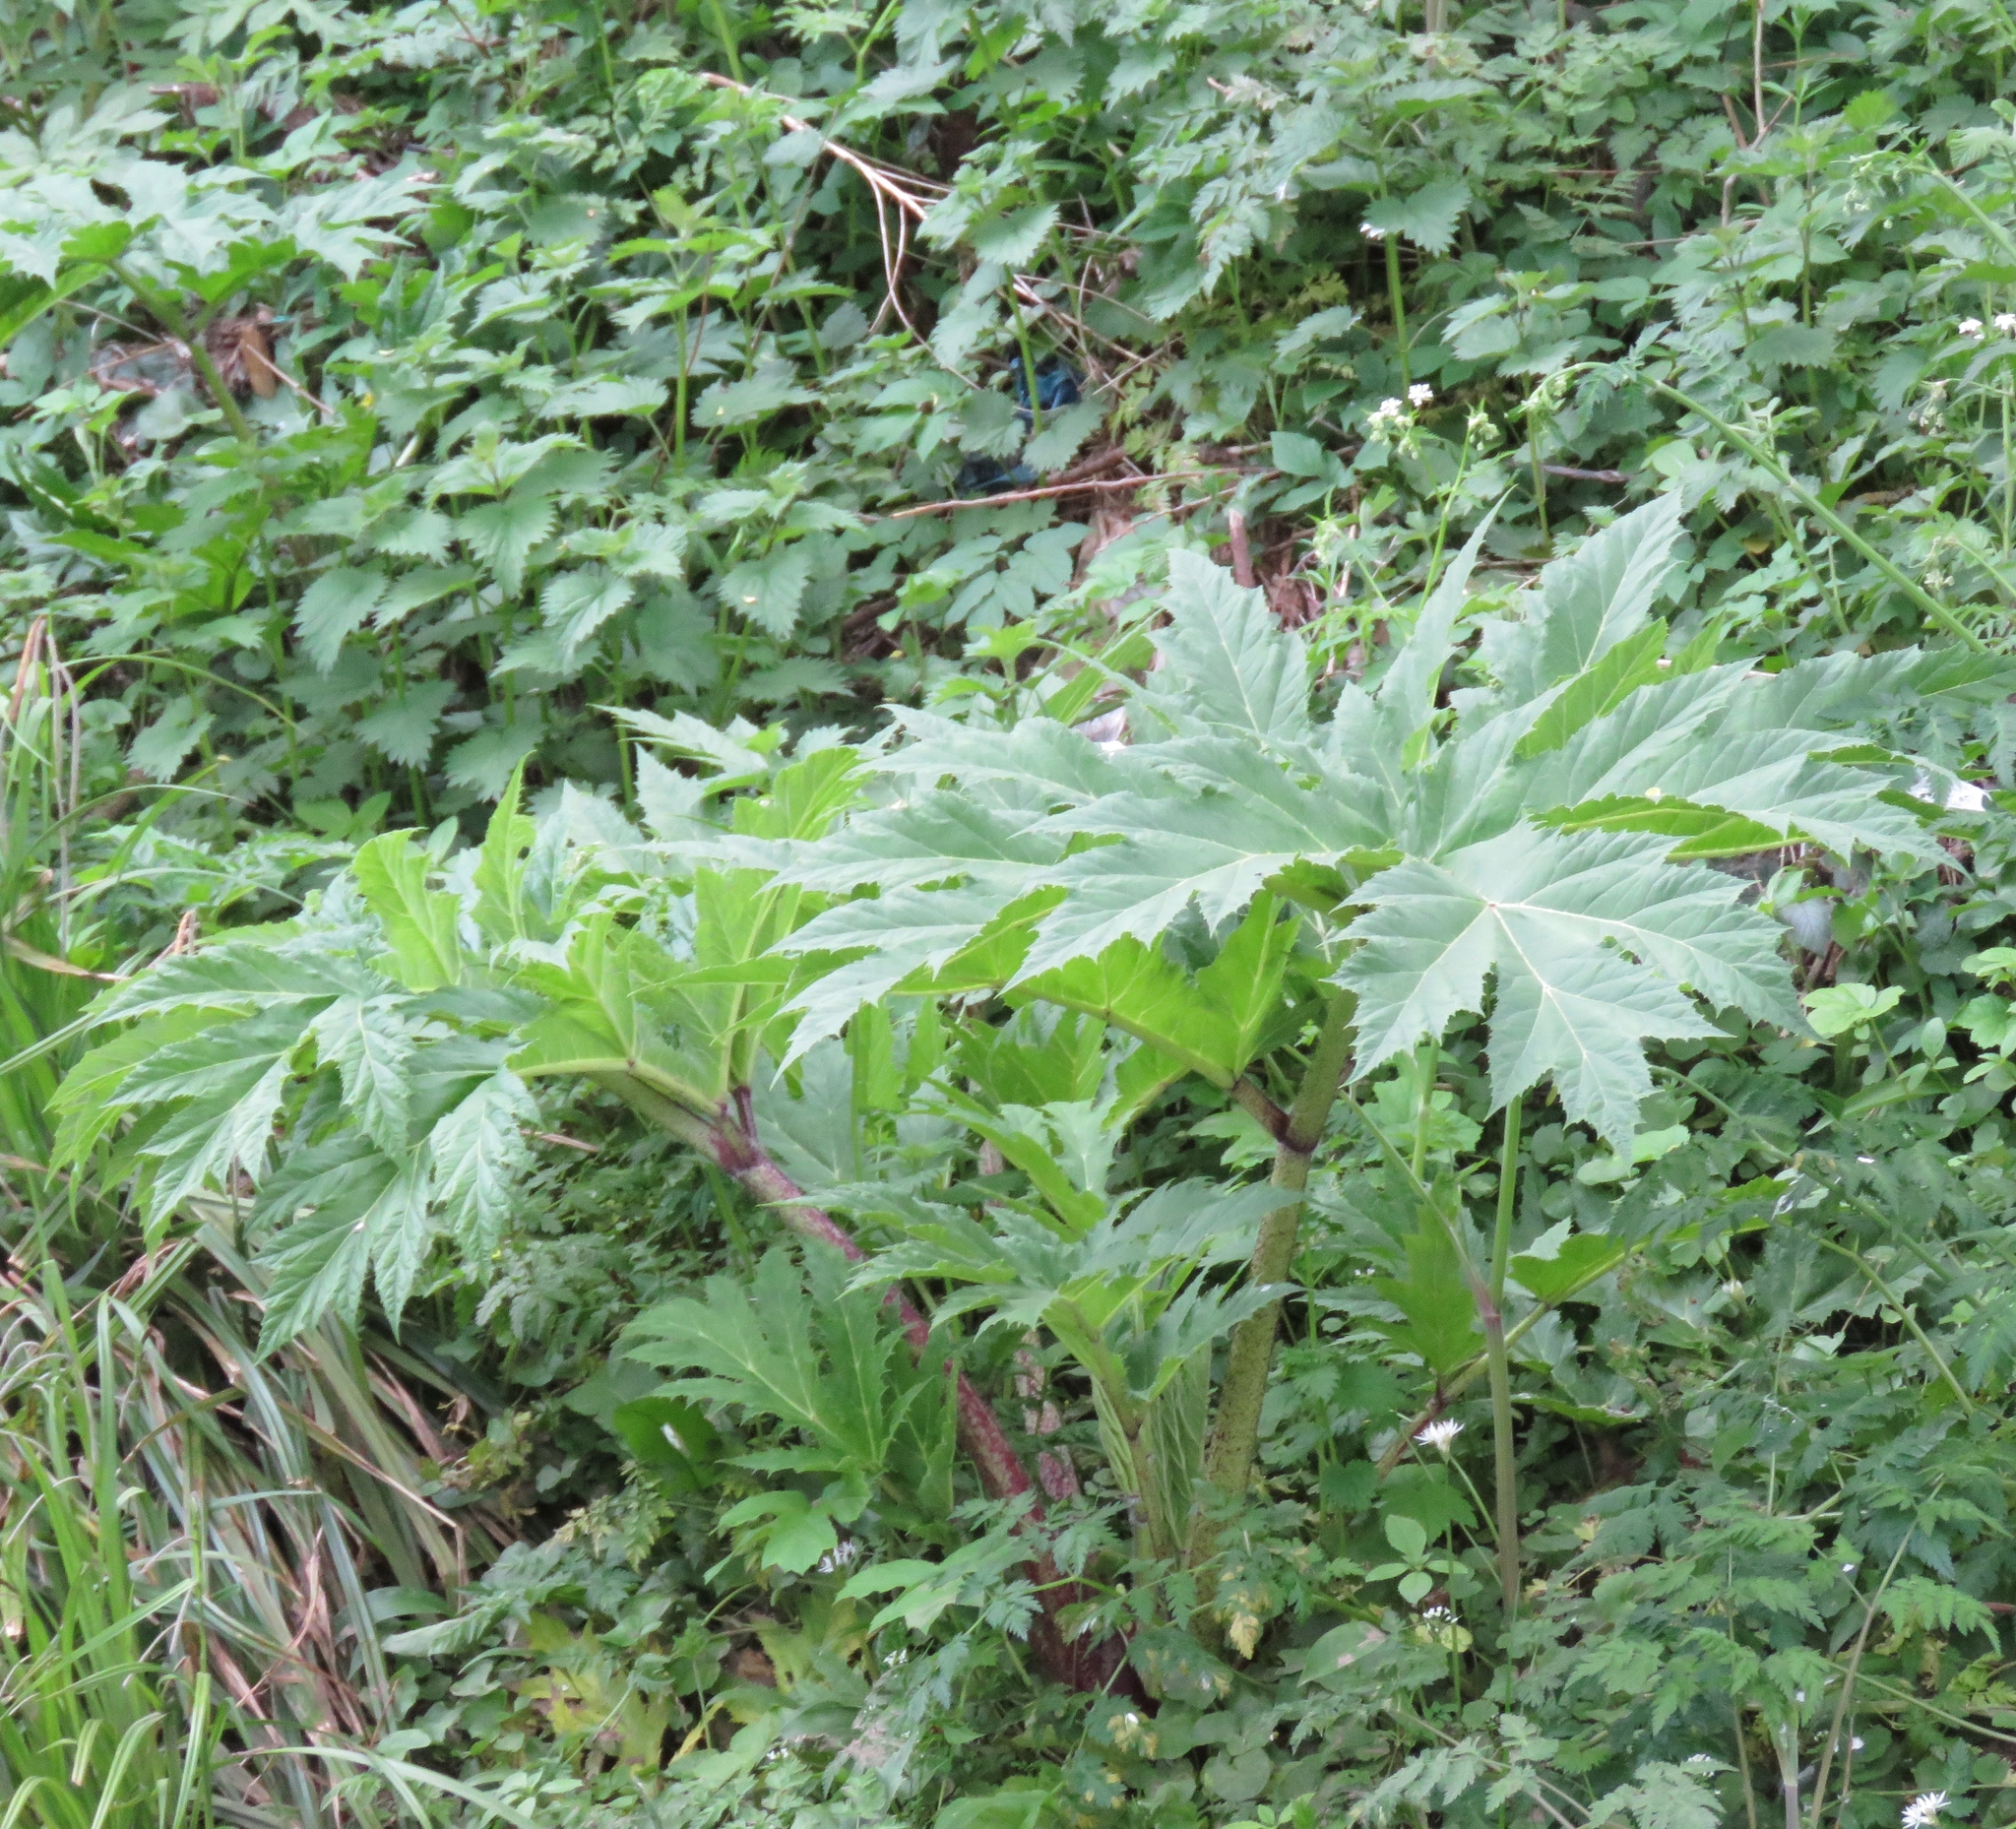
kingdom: Plantae
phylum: Tracheophyta
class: Magnoliopsida
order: Apiales
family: Apiaceae
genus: Heracleum
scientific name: Heracleum mantegazzianum
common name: Giant hogweed
